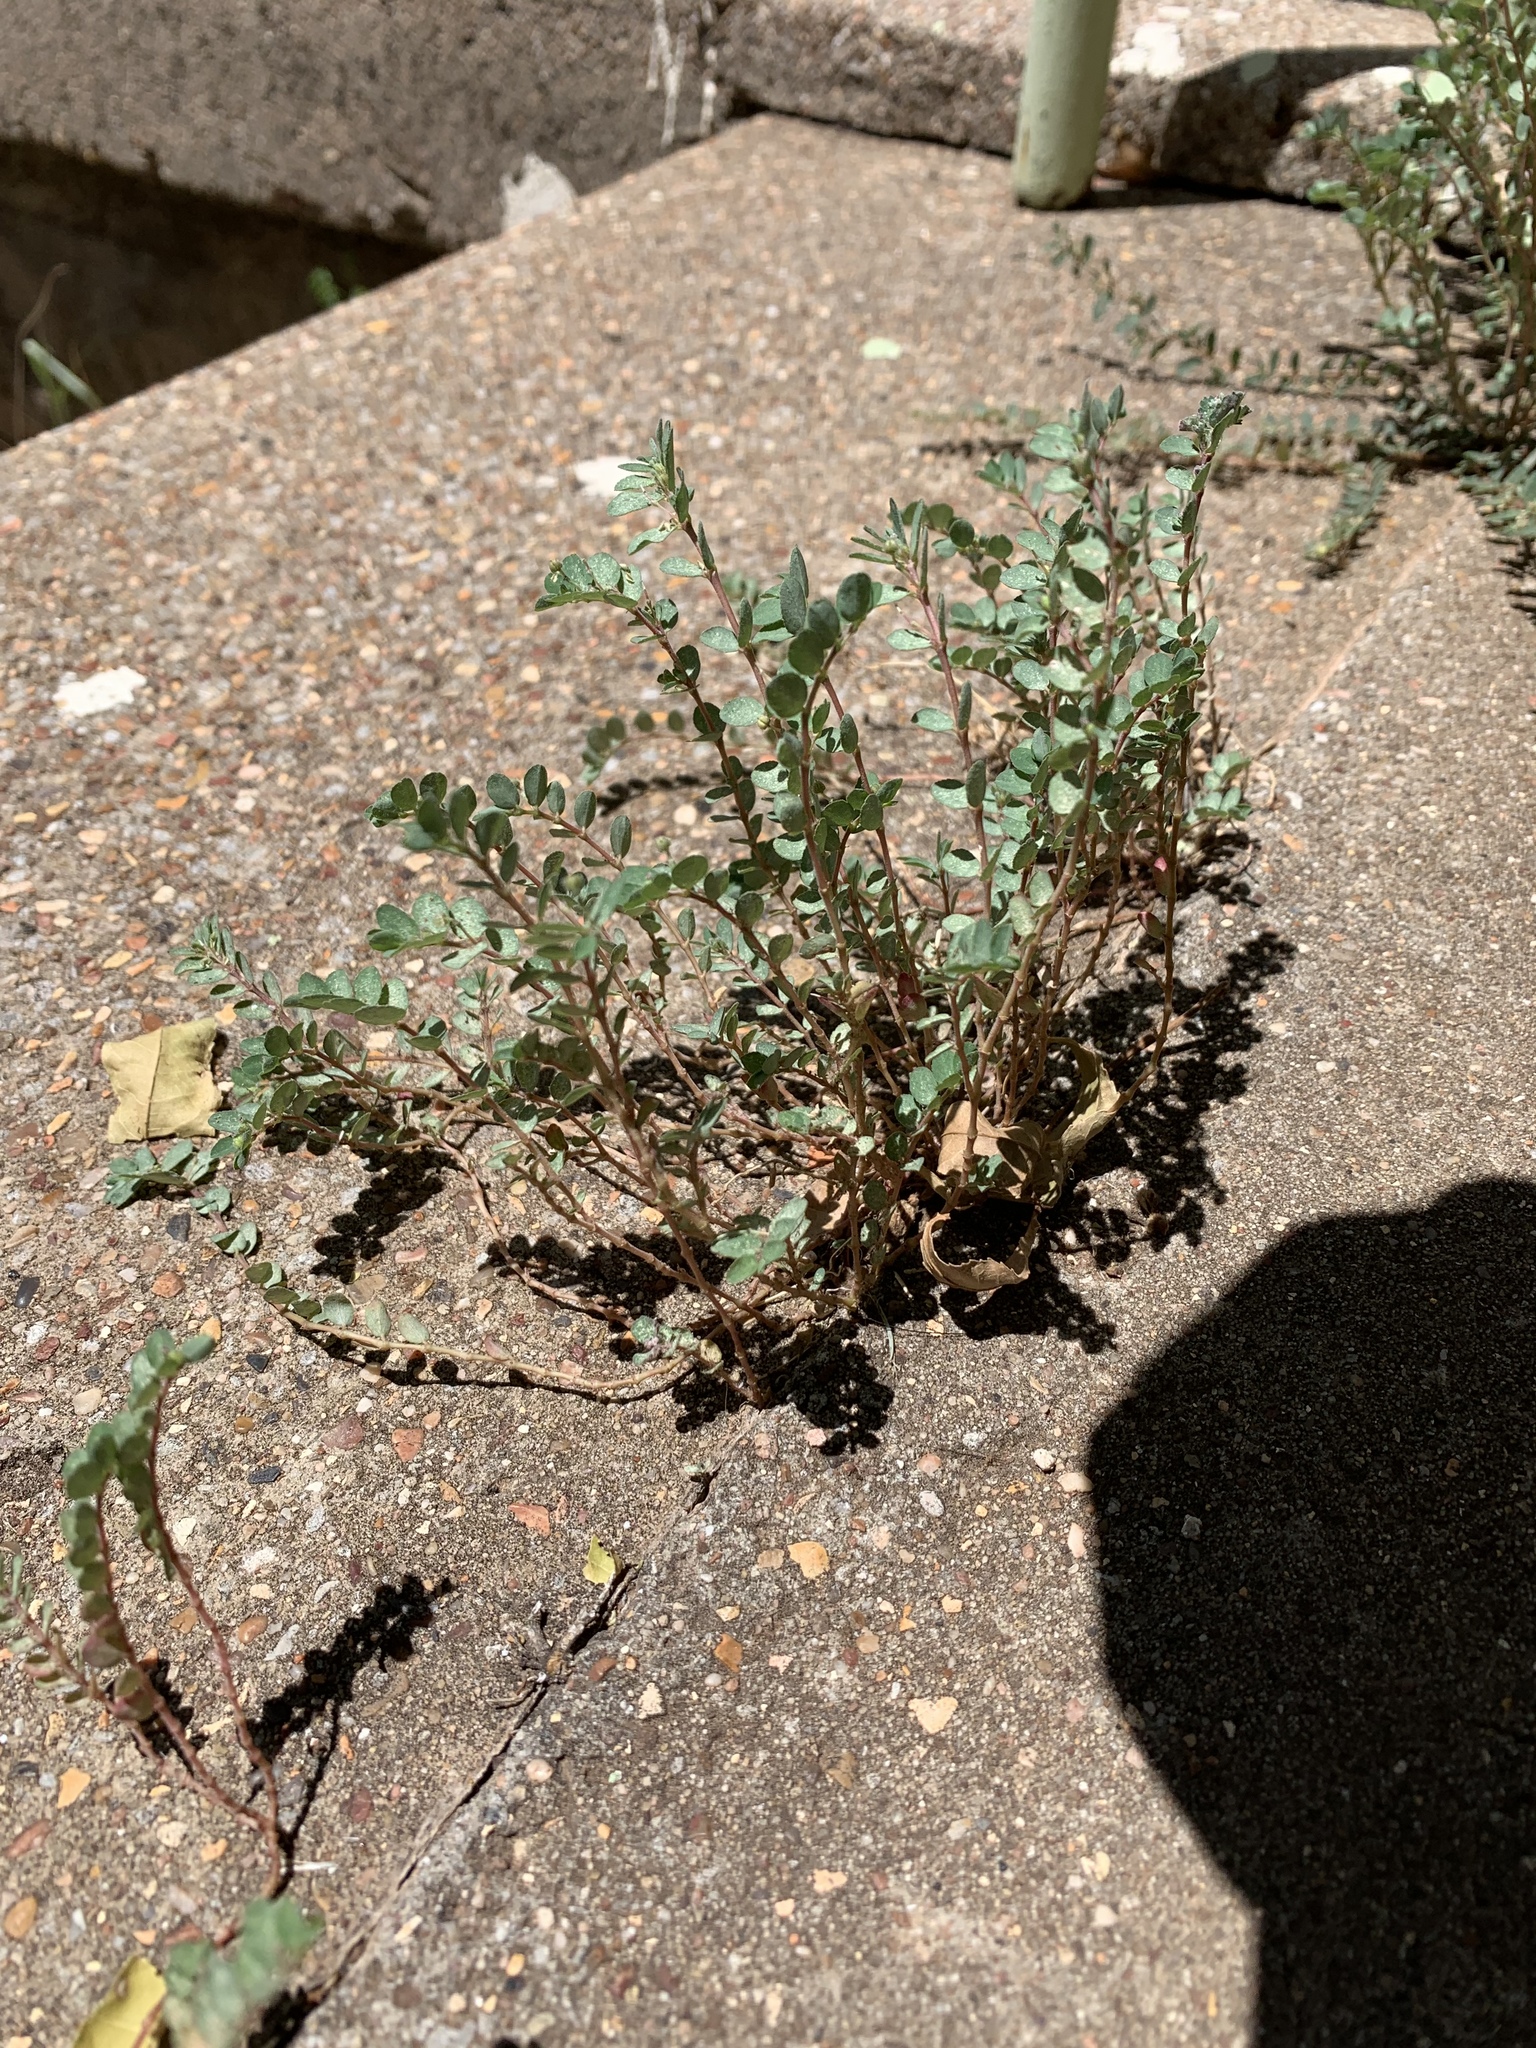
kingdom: Plantae
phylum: Tracheophyta
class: Magnoliopsida
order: Malpighiales
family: Euphorbiaceae
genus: Euphorbia
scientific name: Euphorbia prostrata
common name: Prostrate sandmat
